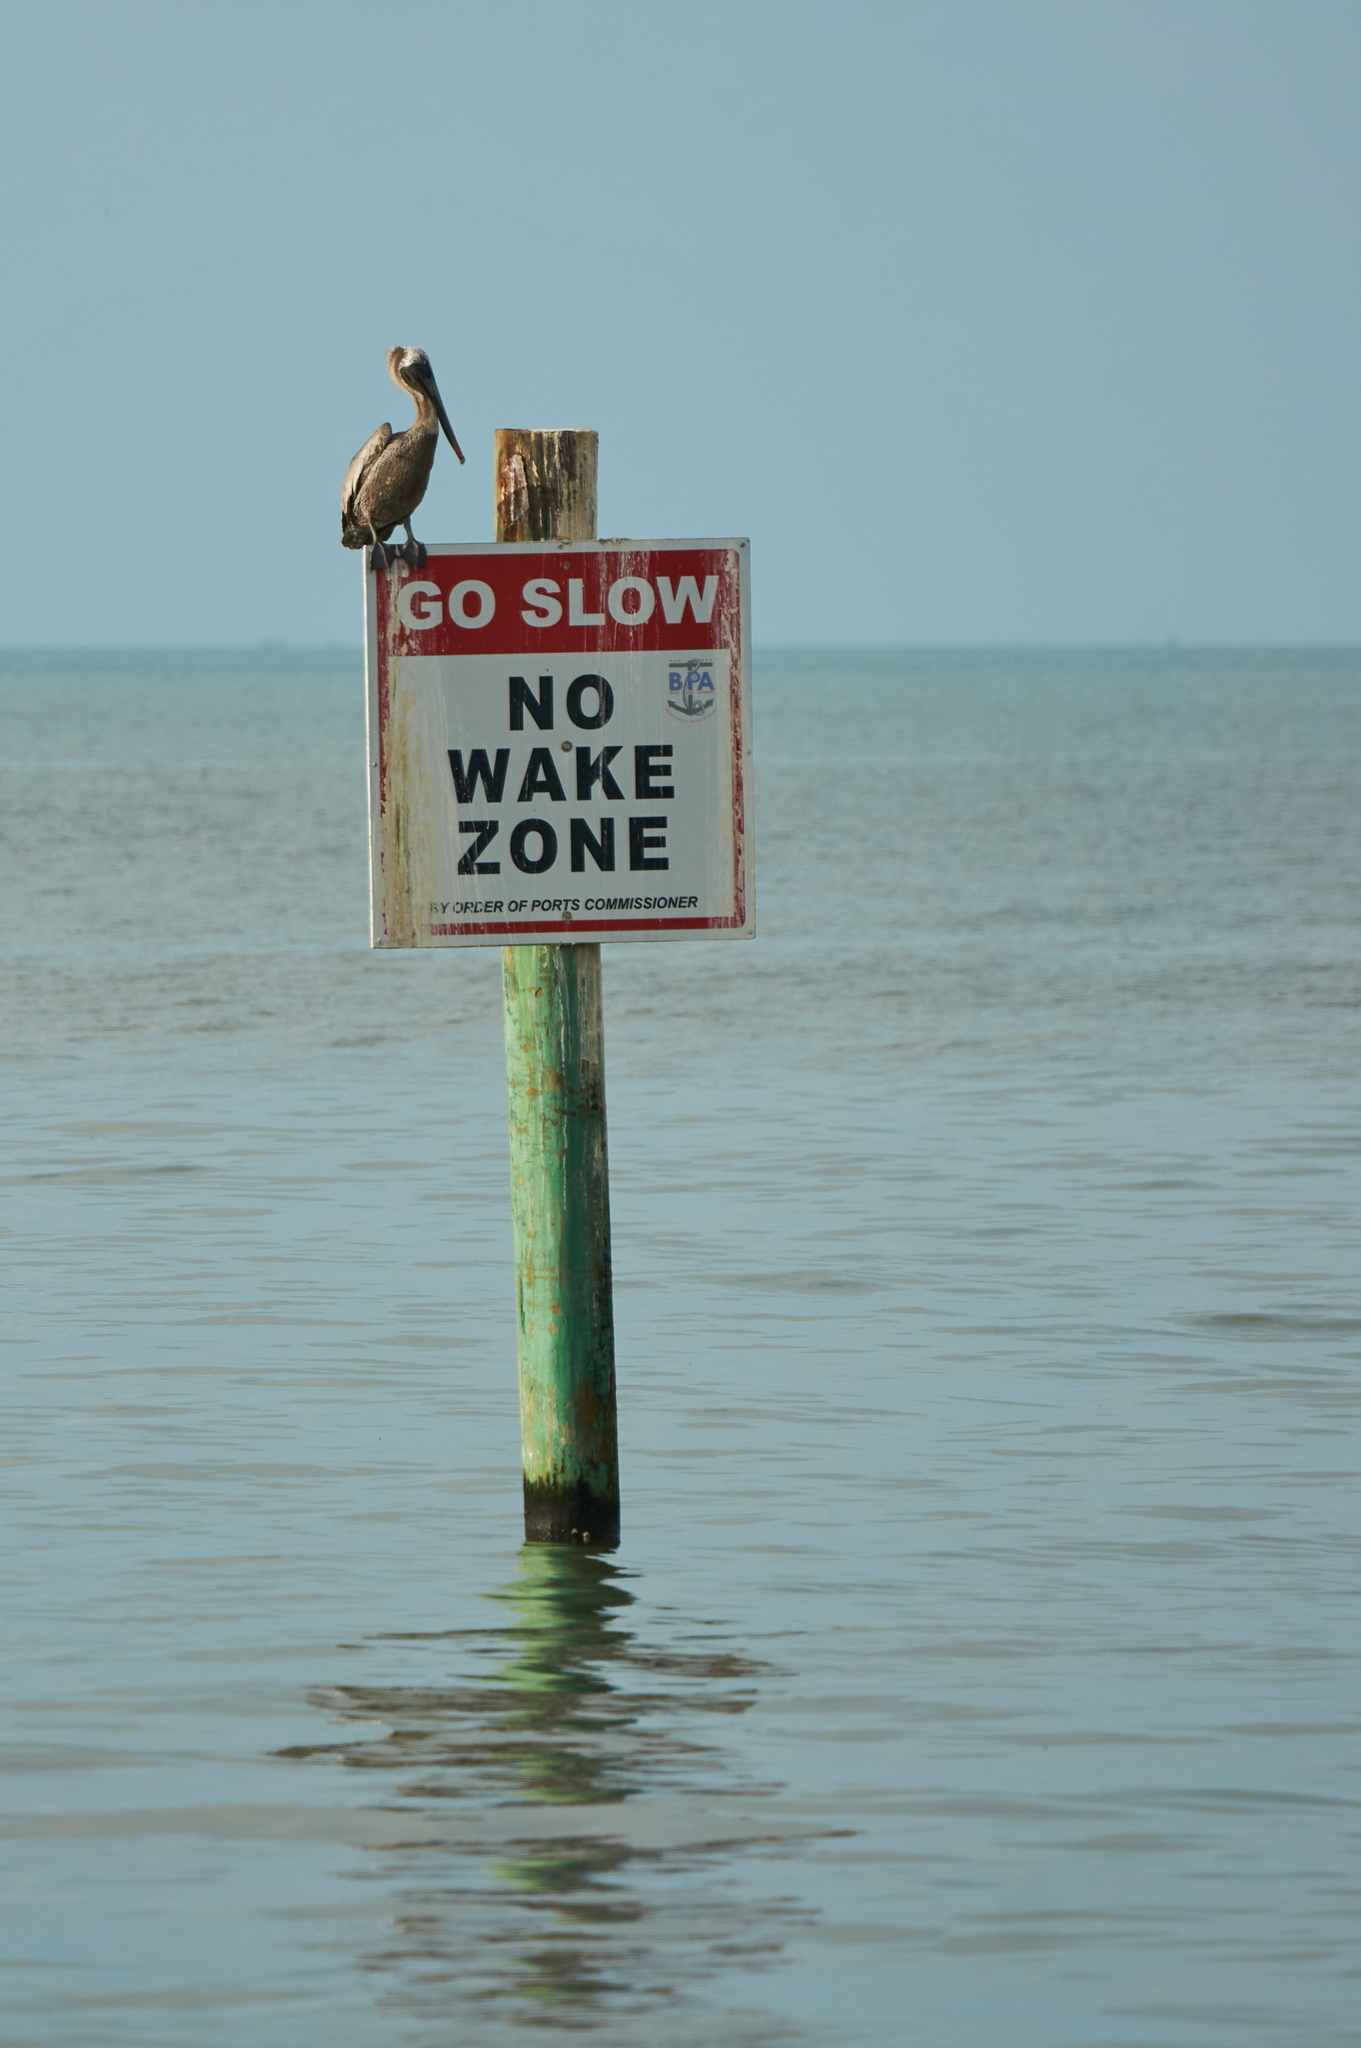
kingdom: Animalia
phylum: Chordata
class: Aves
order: Pelecaniformes
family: Pelecanidae
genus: Pelecanus
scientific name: Pelecanus occidentalis
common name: Brown pelican
